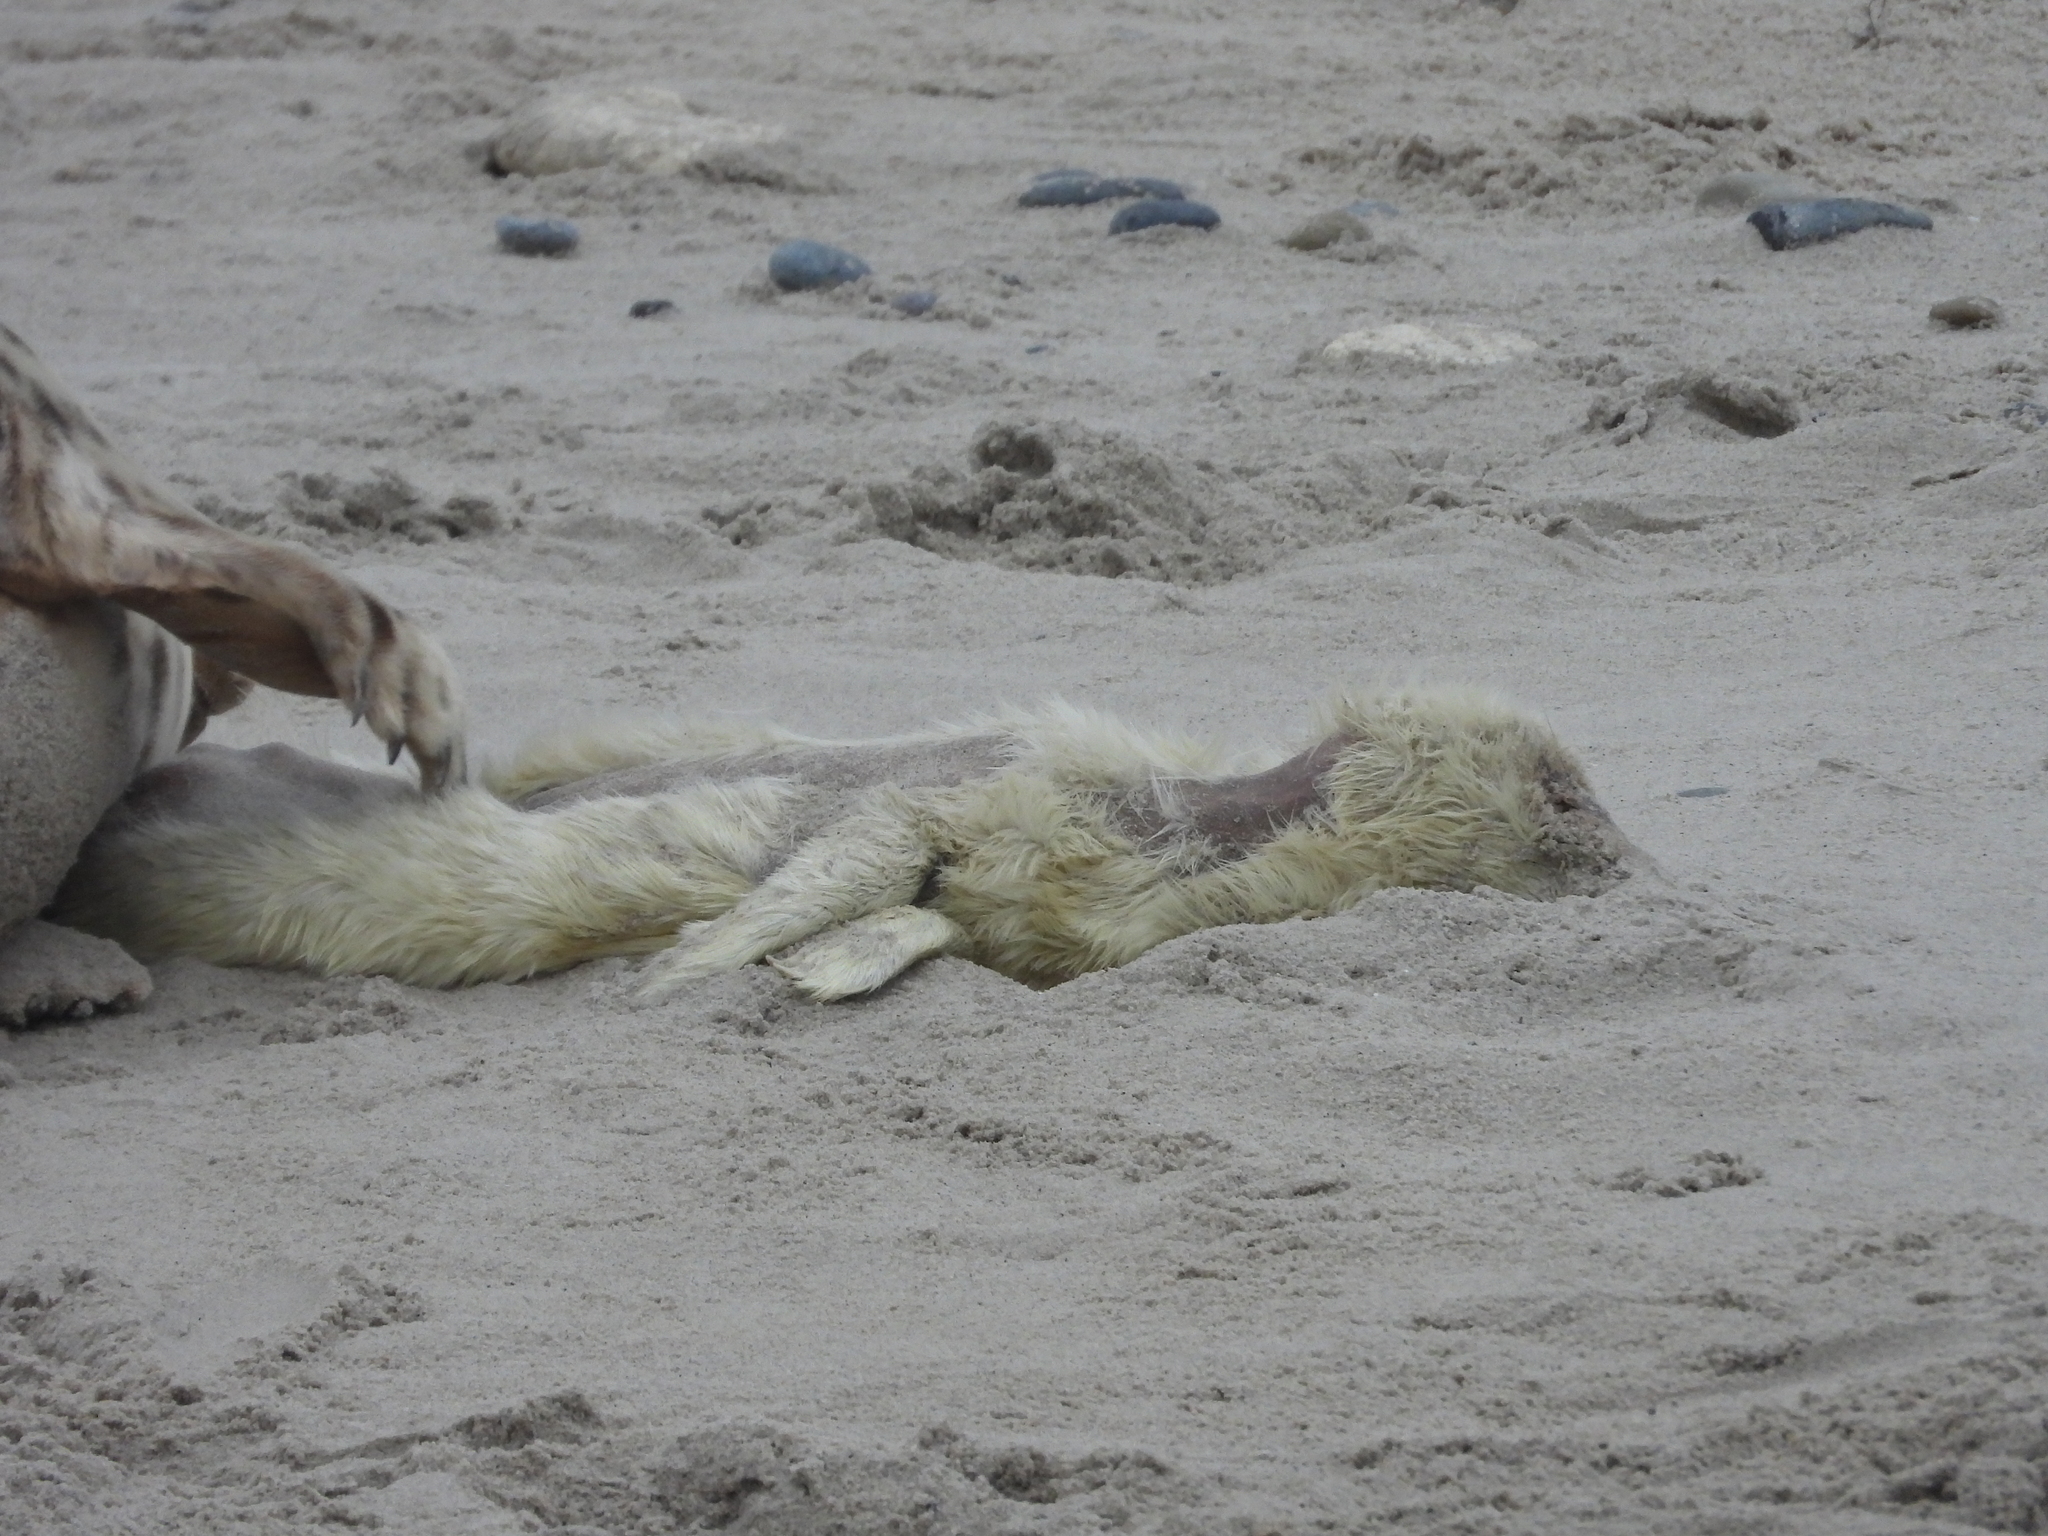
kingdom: Animalia
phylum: Chordata
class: Mammalia
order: Carnivora
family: Phocidae
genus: Halichoerus
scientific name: Halichoerus grypus
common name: Grey seal
